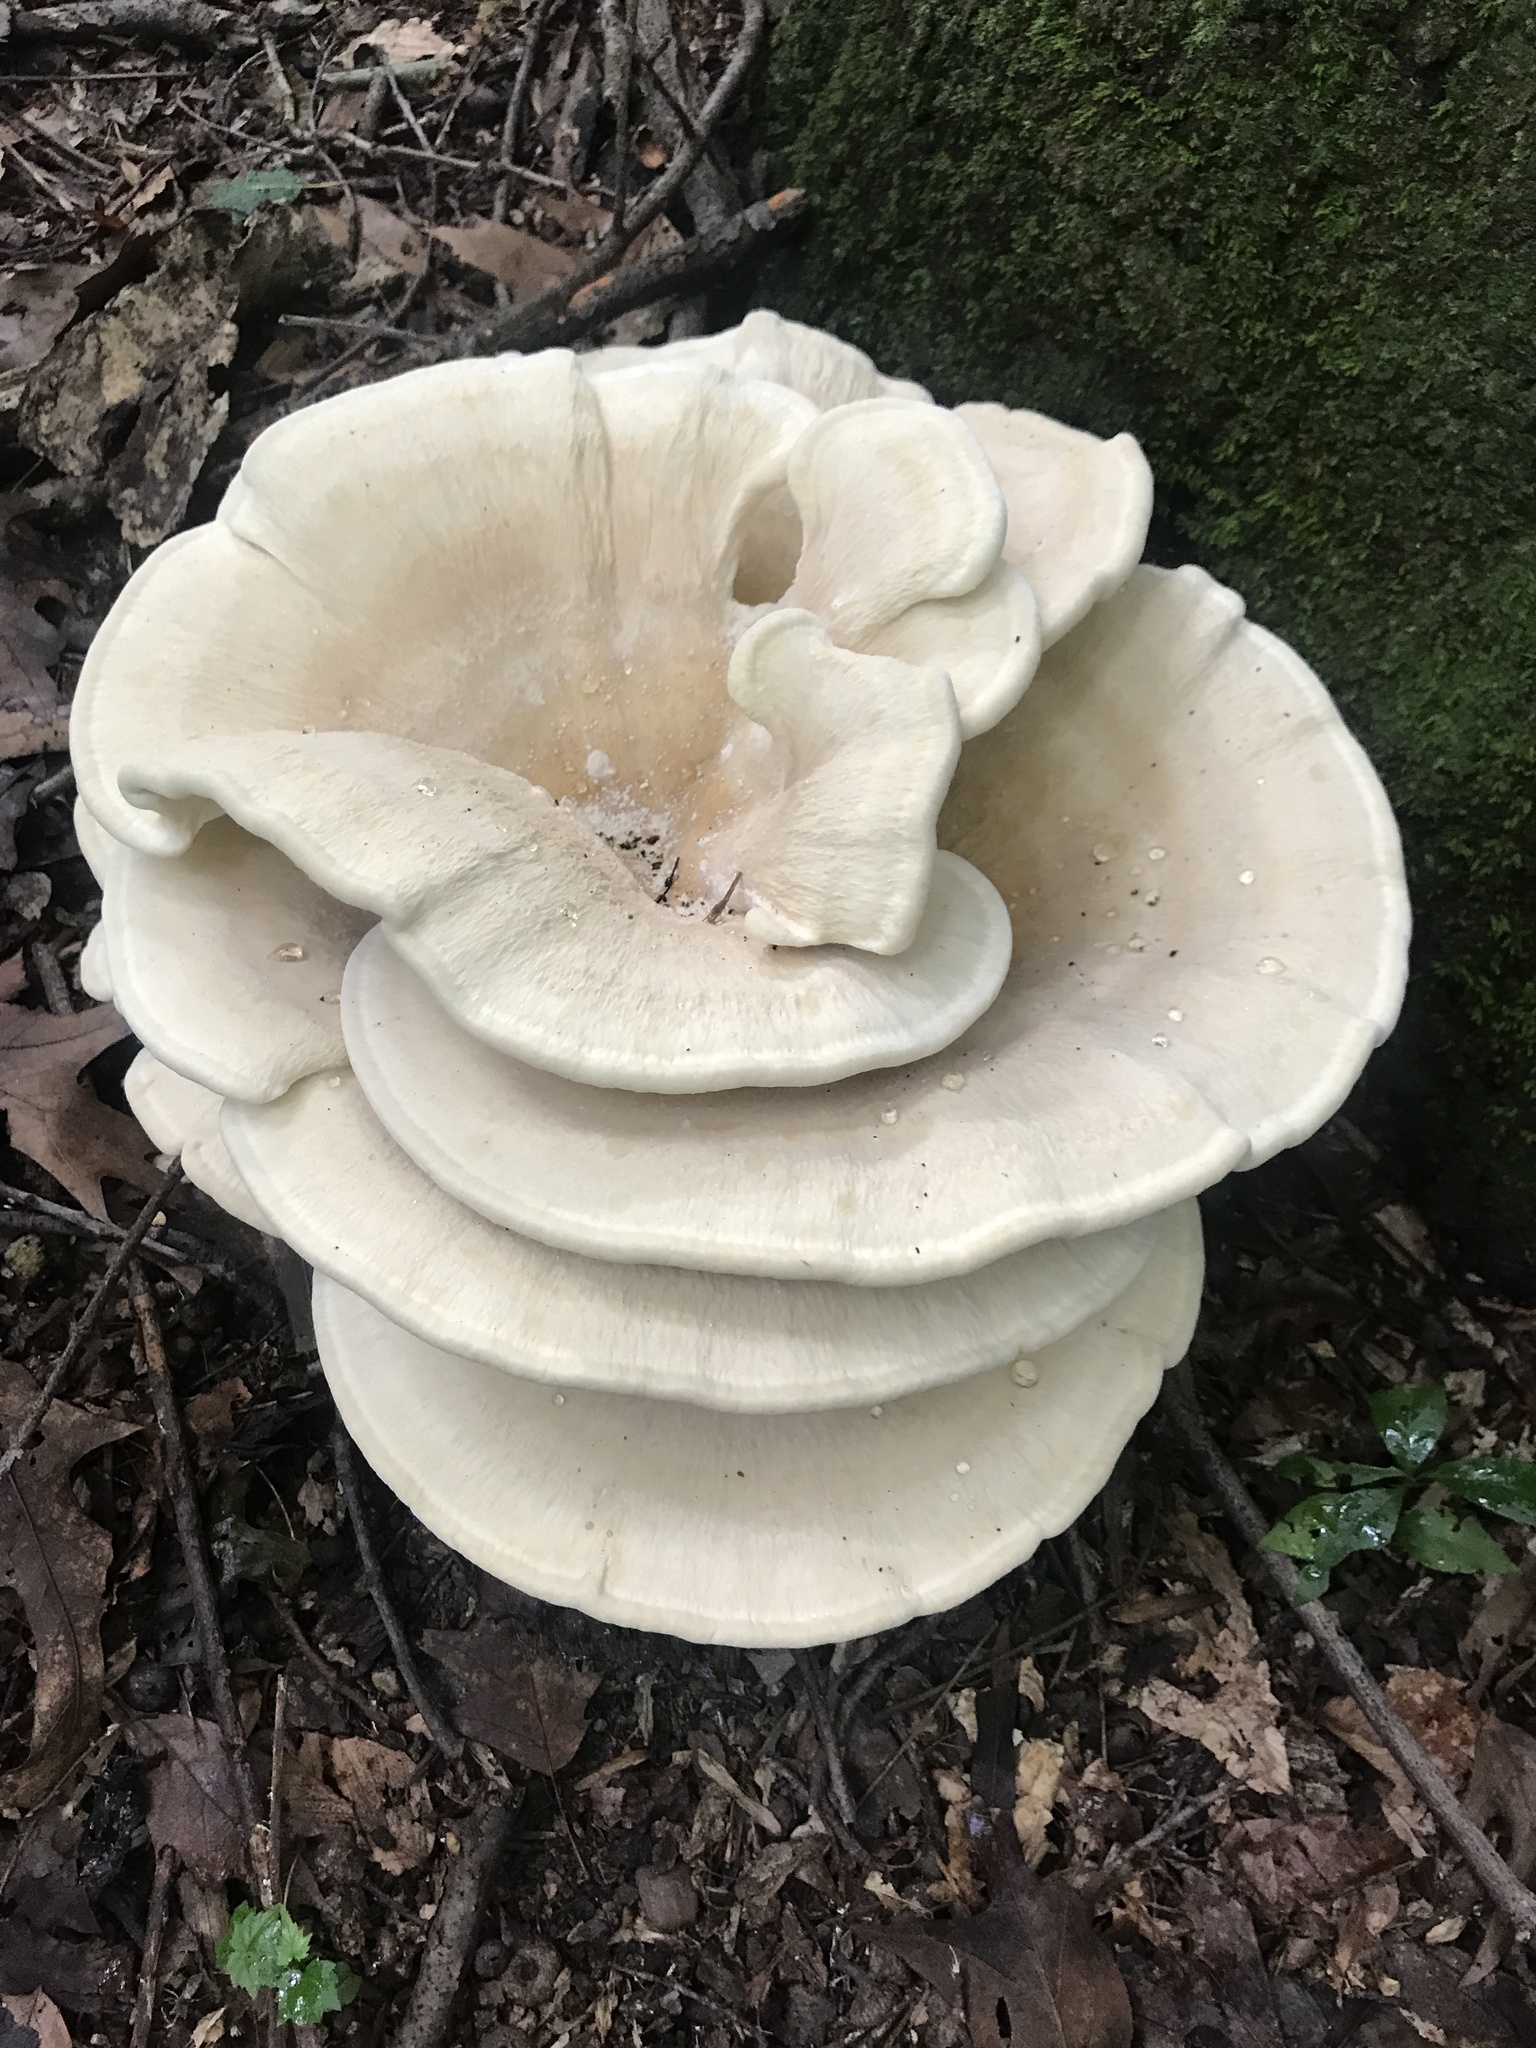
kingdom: Fungi
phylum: Basidiomycota
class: Agaricomycetes
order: Russulales
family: Bondarzewiaceae
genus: Bondarzewia
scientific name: Bondarzewia berkeleyi
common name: Berkeley's polypore
